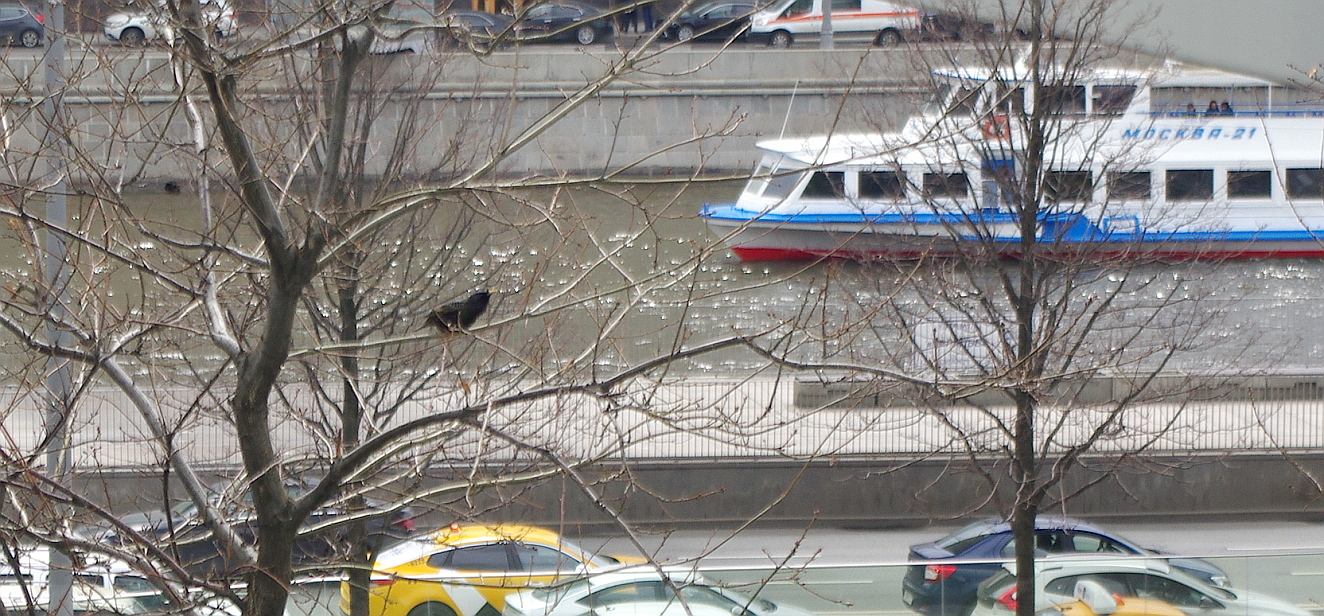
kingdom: Animalia
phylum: Chordata
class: Aves
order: Passeriformes
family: Sturnidae
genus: Sturnus
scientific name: Sturnus vulgaris
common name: Common starling
